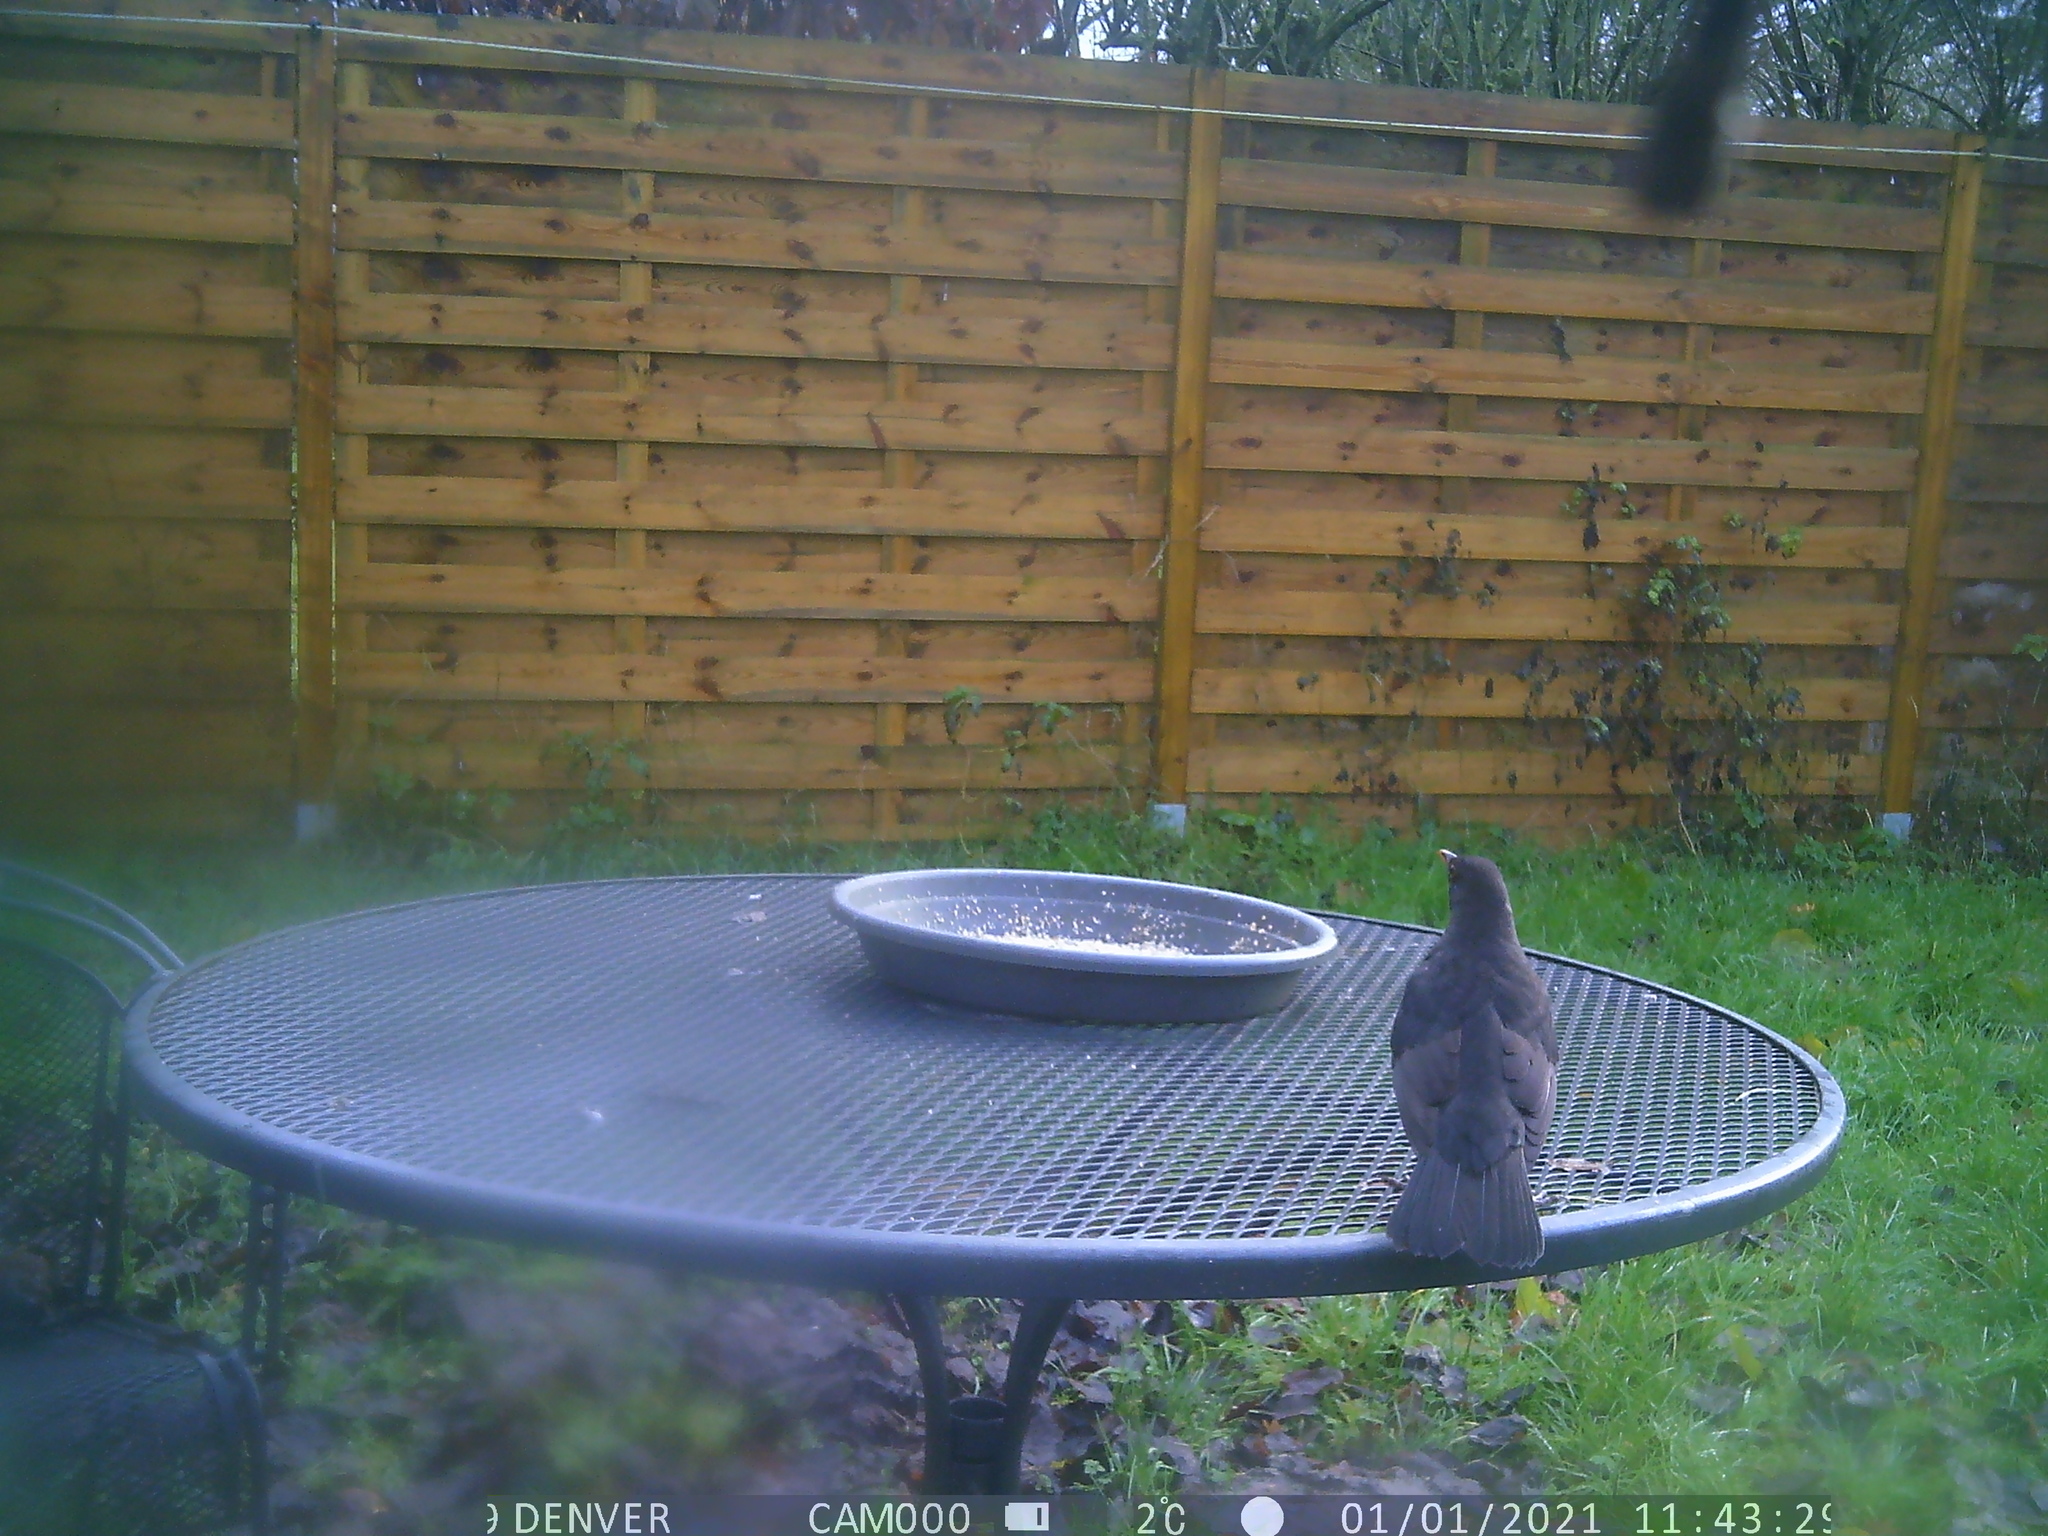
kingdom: Animalia
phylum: Chordata
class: Aves
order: Passeriformes
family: Turdidae
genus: Turdus
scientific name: Turdus merula
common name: Common blackbird
